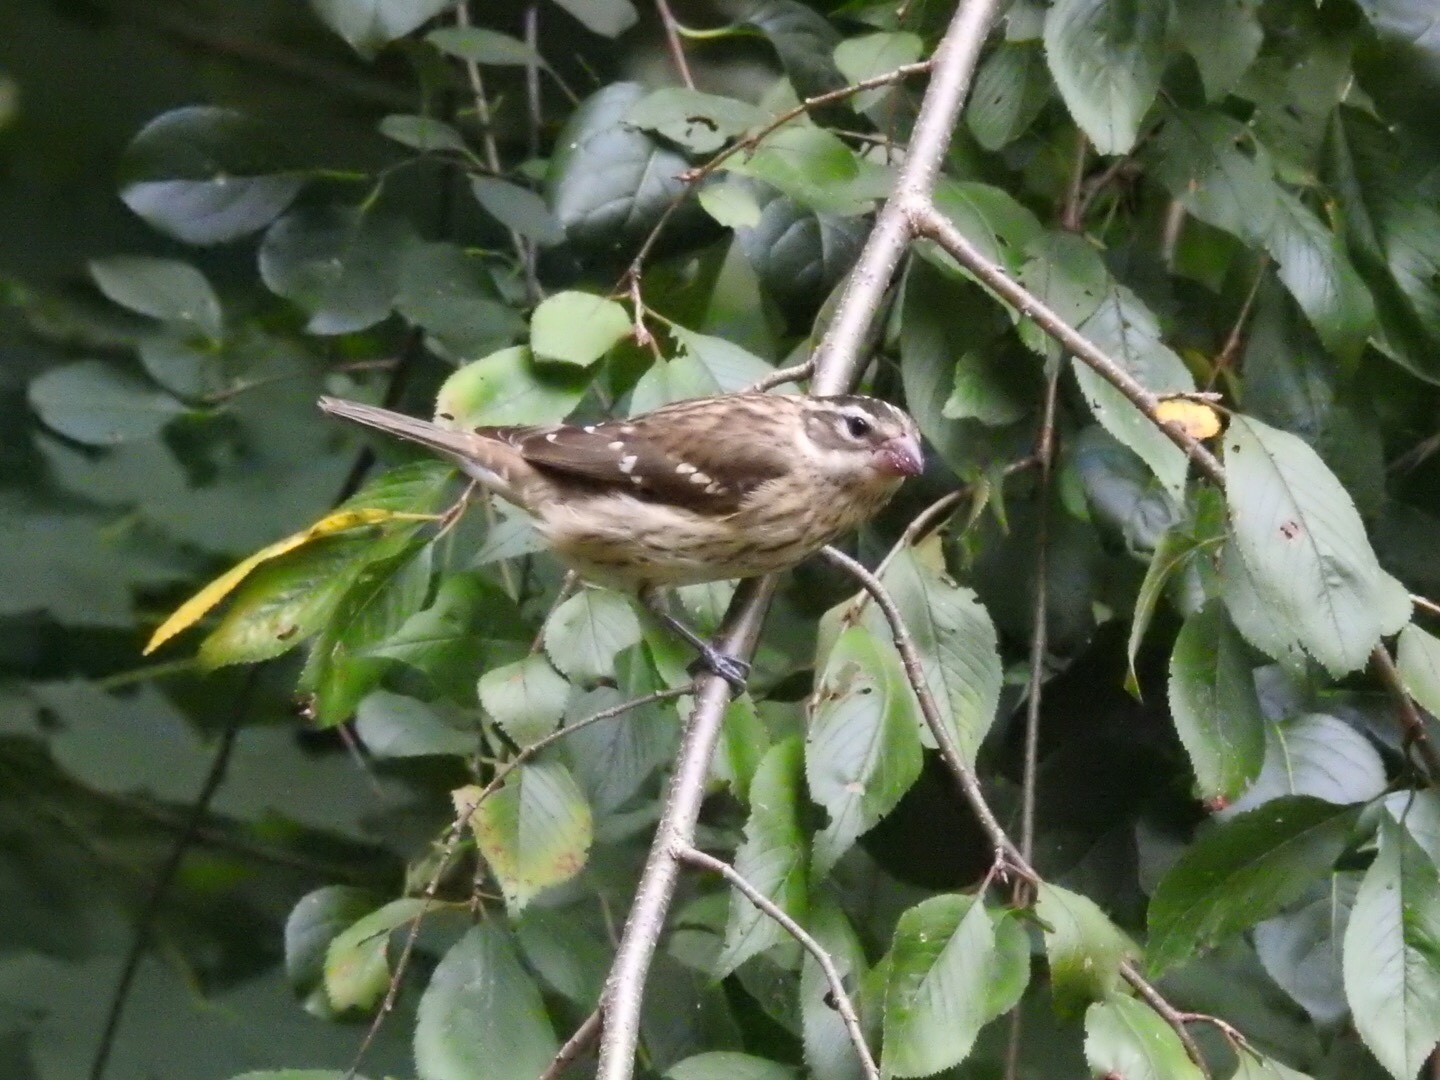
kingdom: Animalia
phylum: Chordata
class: Aves
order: Passeriformes
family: Cardinalidae
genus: Pheucticus
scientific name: Pheucticus ludovicianus
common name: Rose-breasted grosbeak
